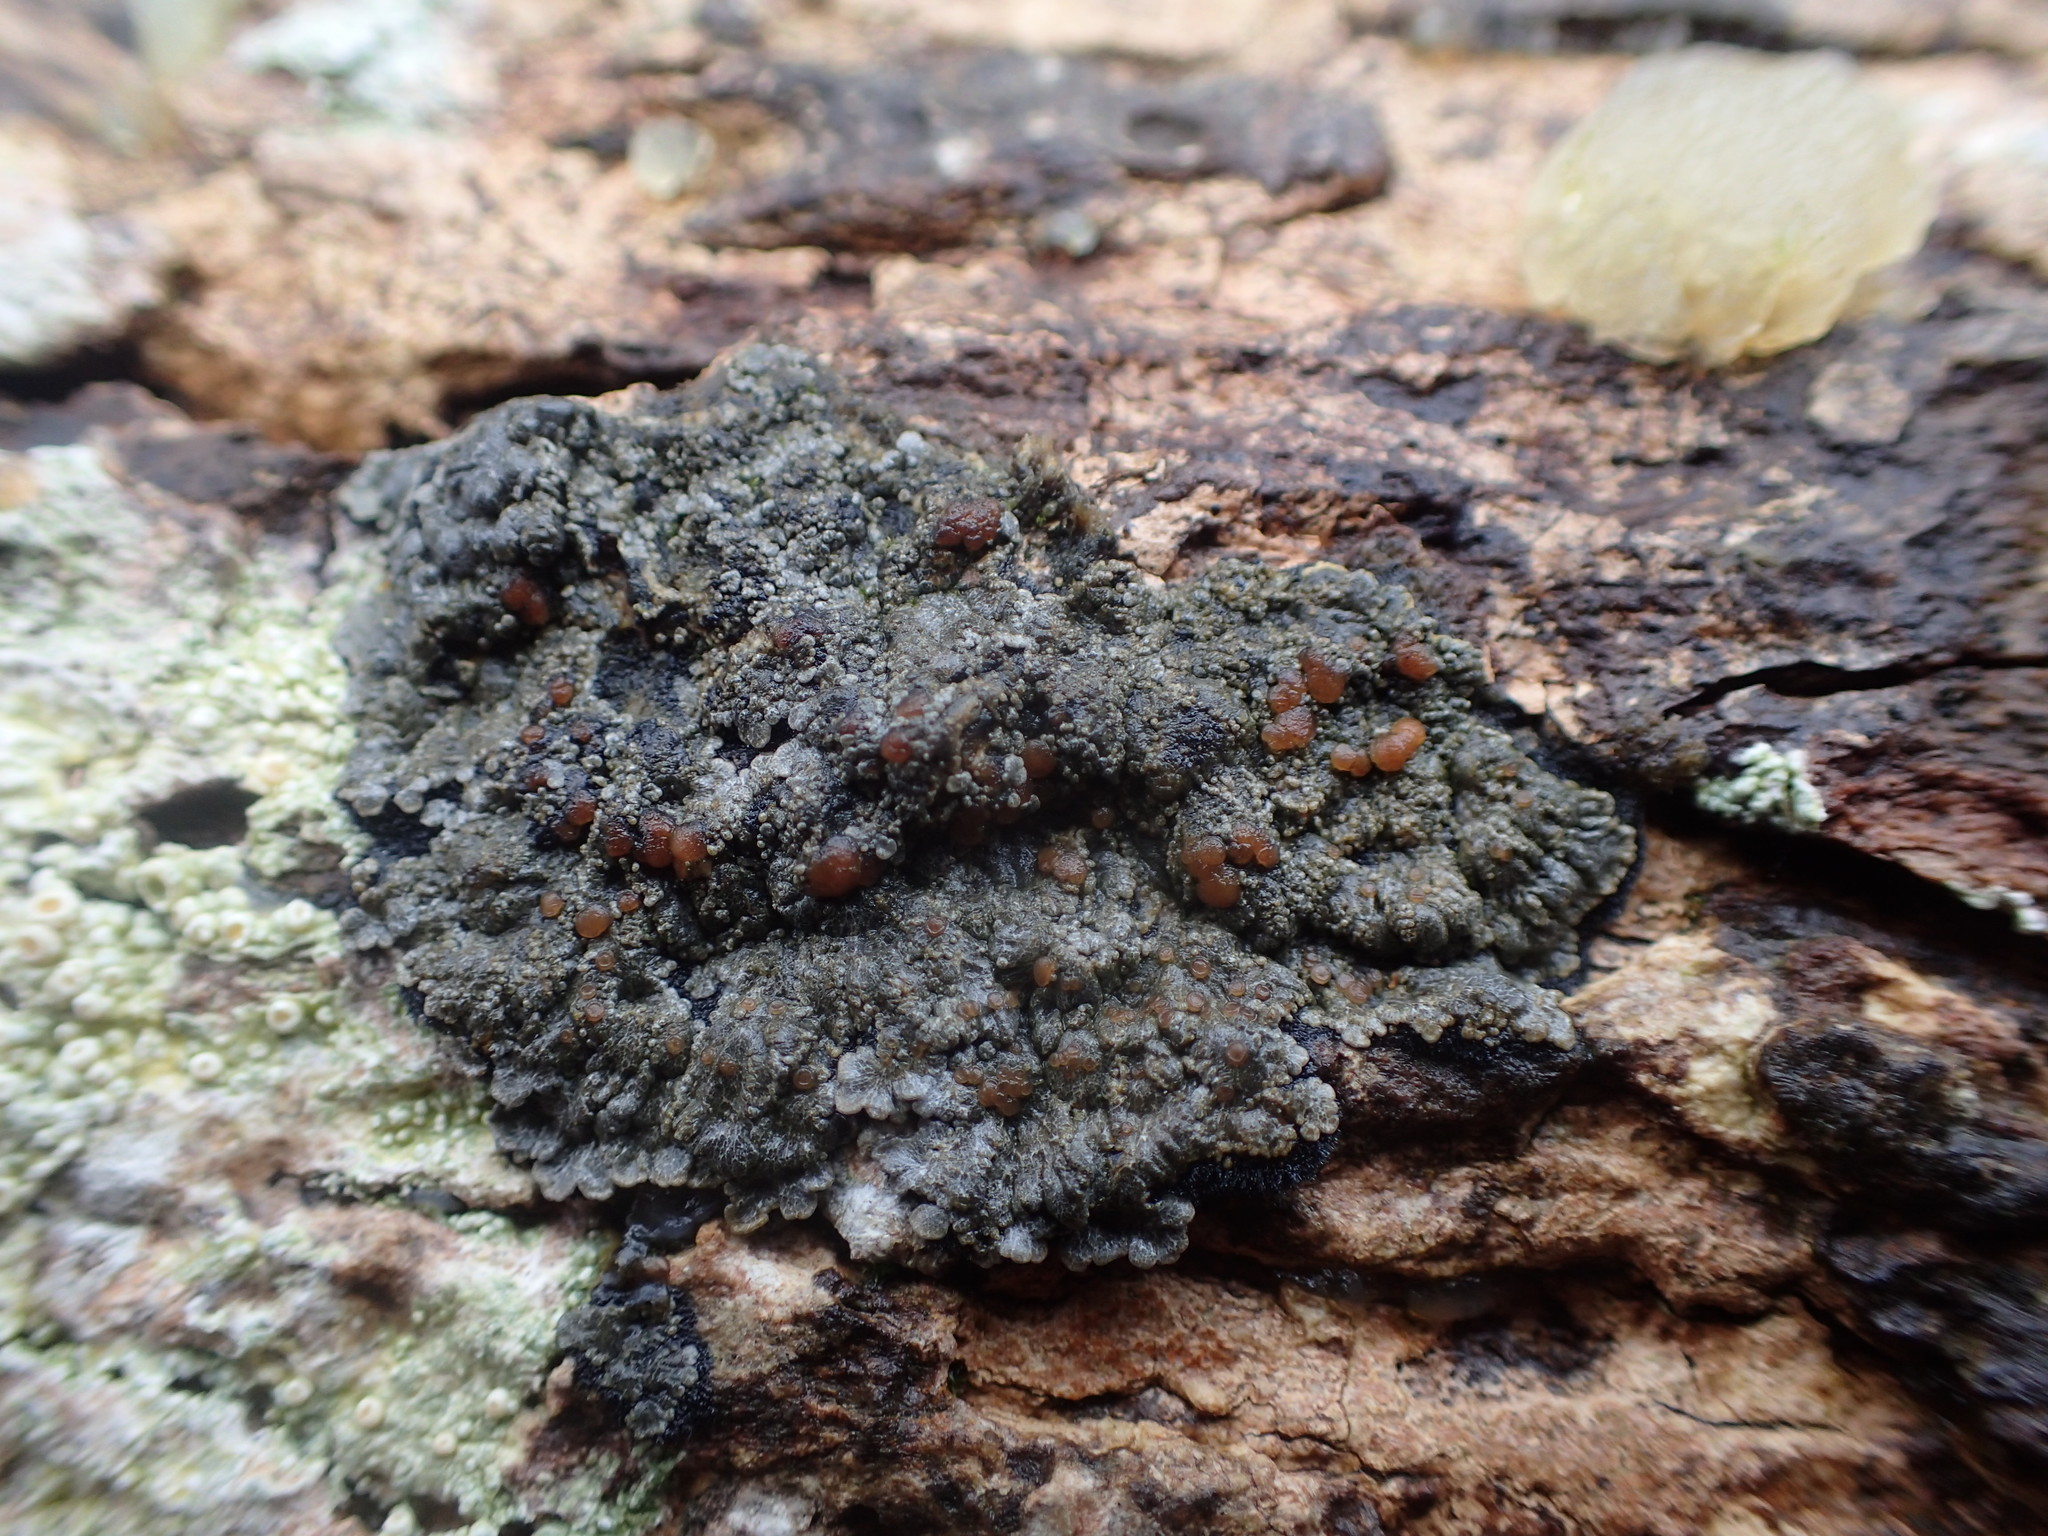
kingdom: Fungi
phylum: Ascomycota
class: Lecanoromycetes
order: Peltigerales
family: Pannariaceae
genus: Pectenia
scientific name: Pectenia plumbea
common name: Bladder stalks
